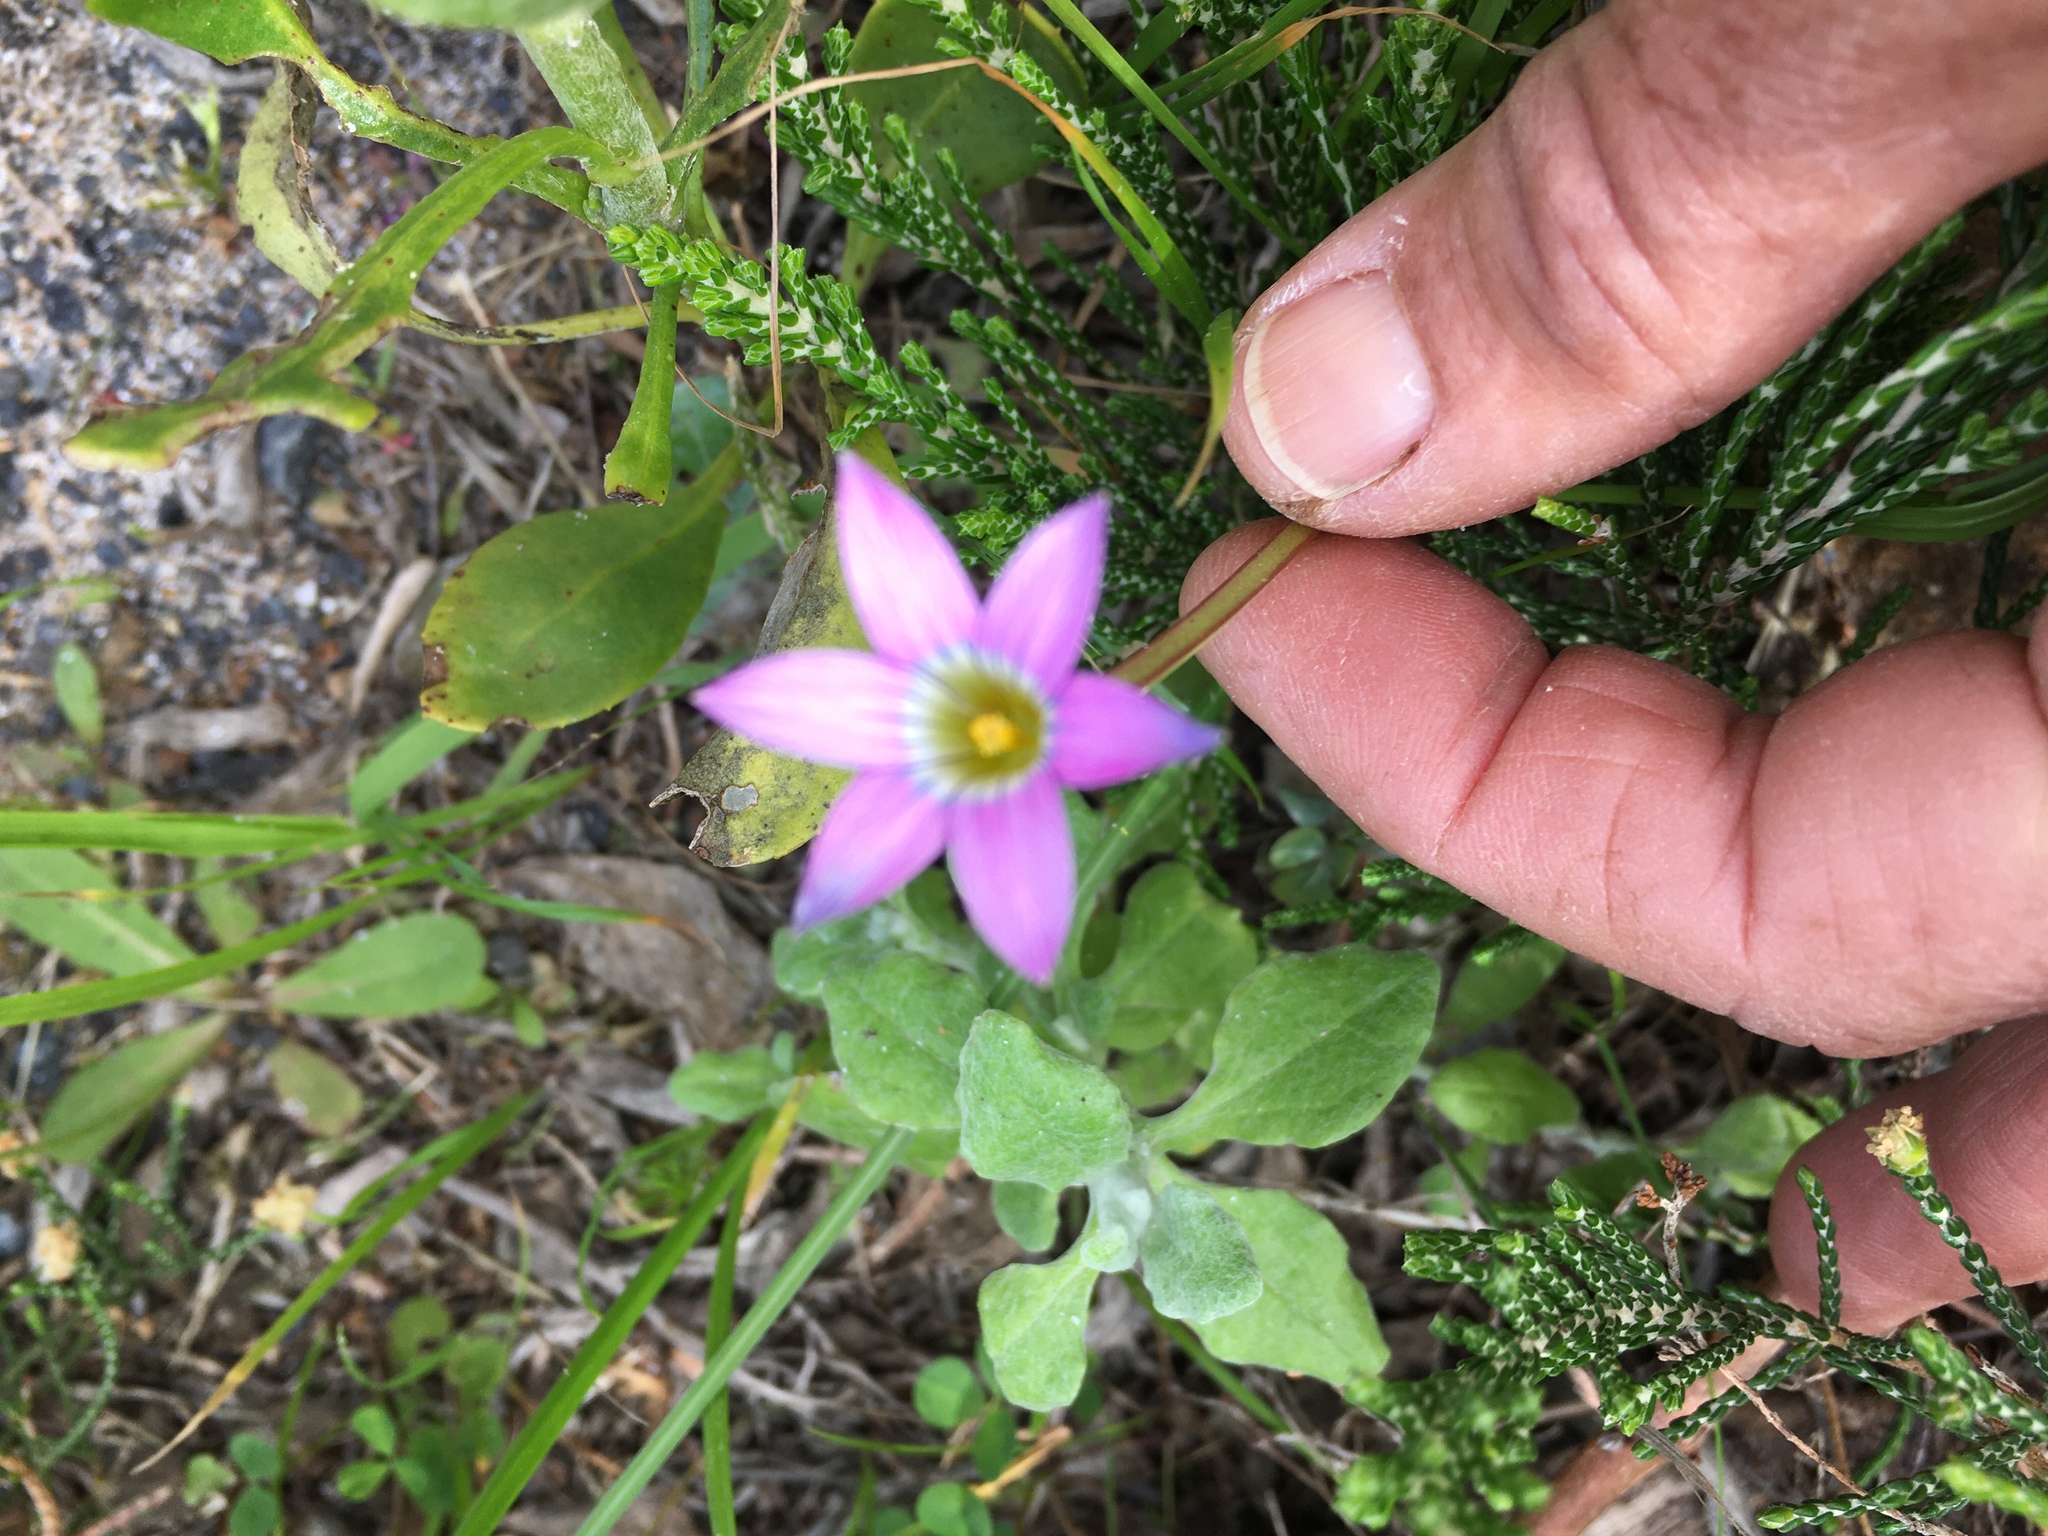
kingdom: Plantae
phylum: Tracheophyta
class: Liliopsida
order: Asparagales
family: Iridaceae
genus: Romulea
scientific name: Romulea rosea
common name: Oniongrass
